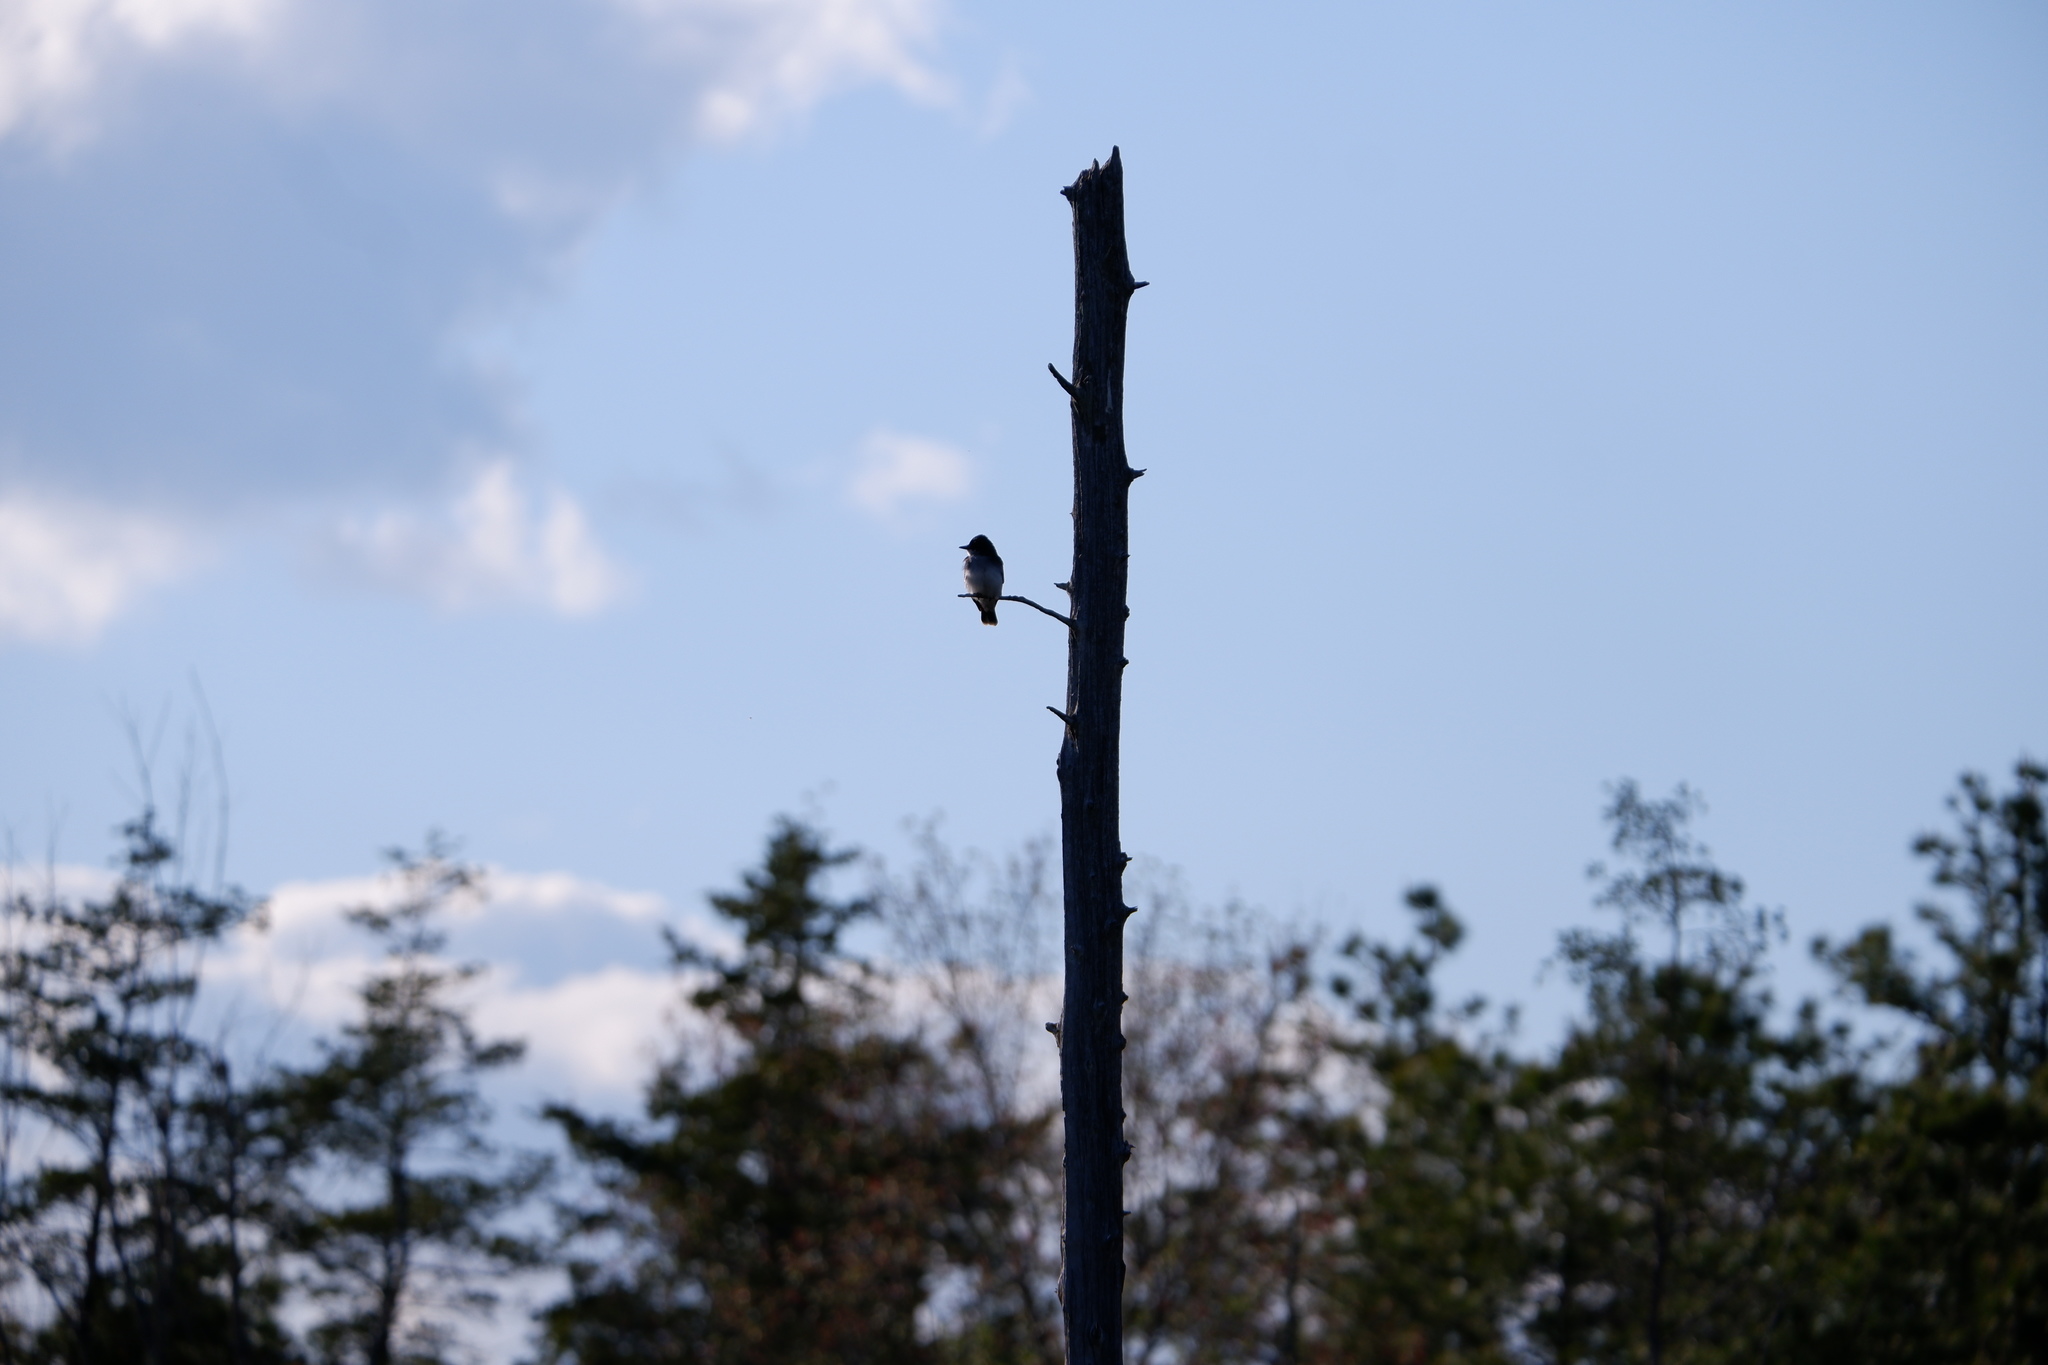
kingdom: Animalia
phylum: Chordata
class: Aves
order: Passeriformes
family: Tyrannidae
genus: Tyrannus
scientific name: Tyrannus tyrannus
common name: Eastern kingbird
